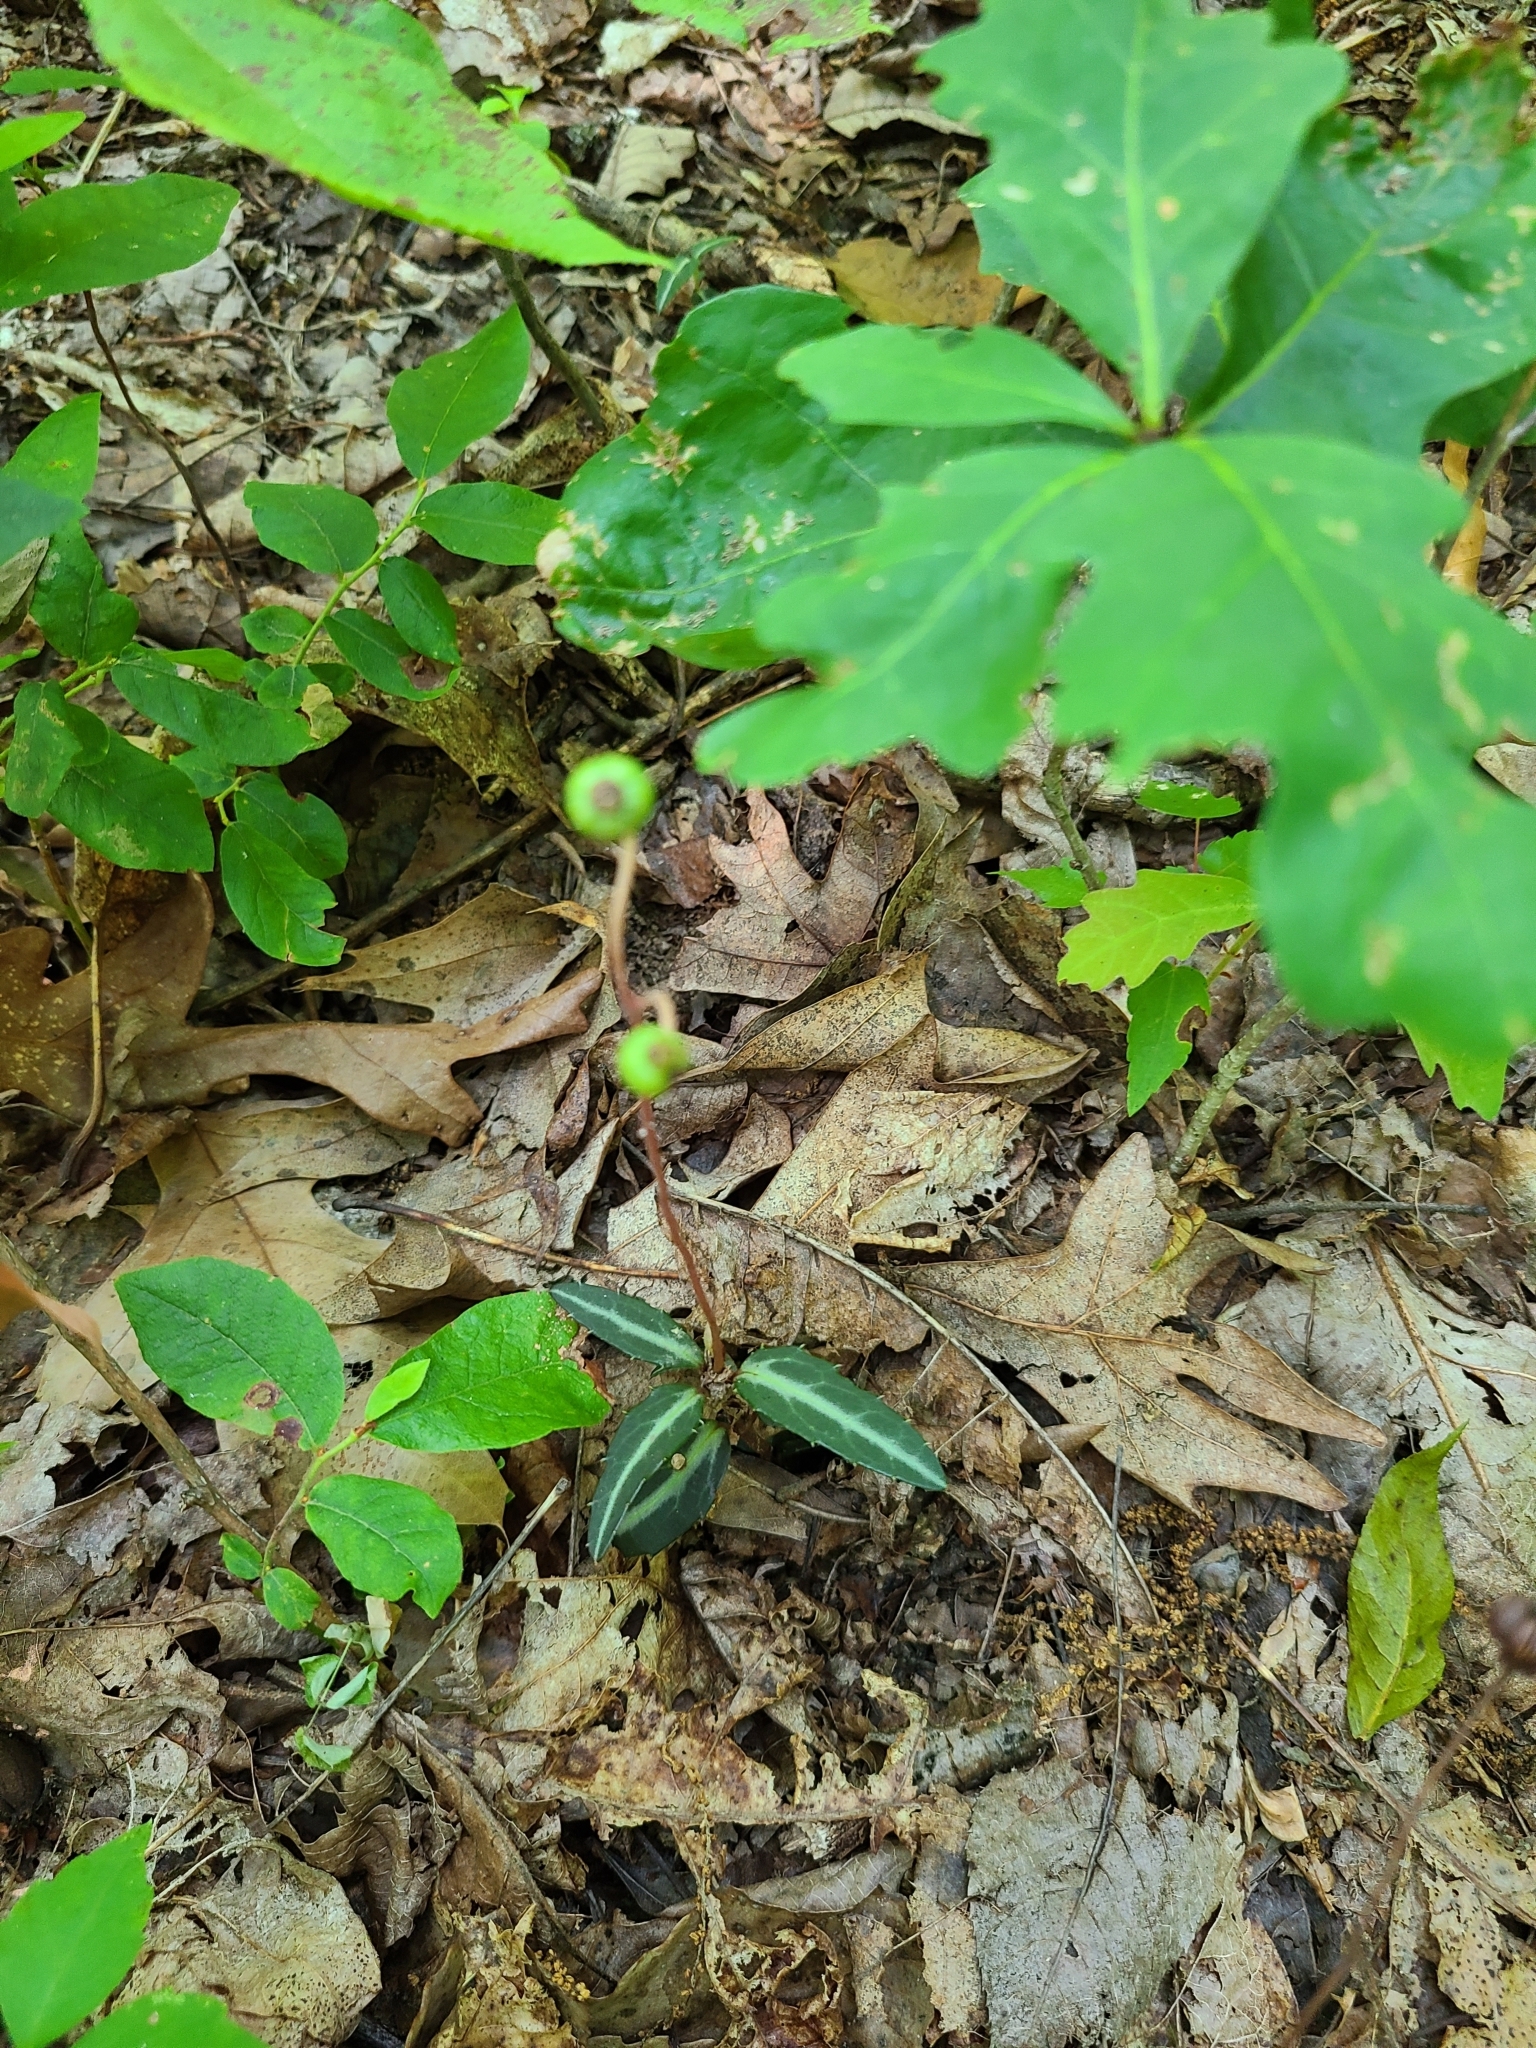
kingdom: Plantae
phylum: Tracheophyta
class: Magnoliopsida
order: Ericales
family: Ericaceae
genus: Chimaphila
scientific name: Chimaphila maculata
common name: Spotted pipsissewa
